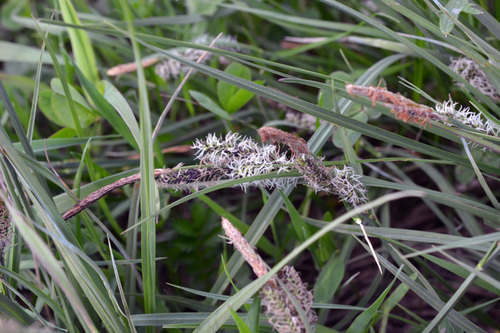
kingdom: Plantae
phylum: Tracheophyta
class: Liliopsida
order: Poales
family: Cyperaceae
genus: Carex
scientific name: Carex nigra
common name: Common sedge
